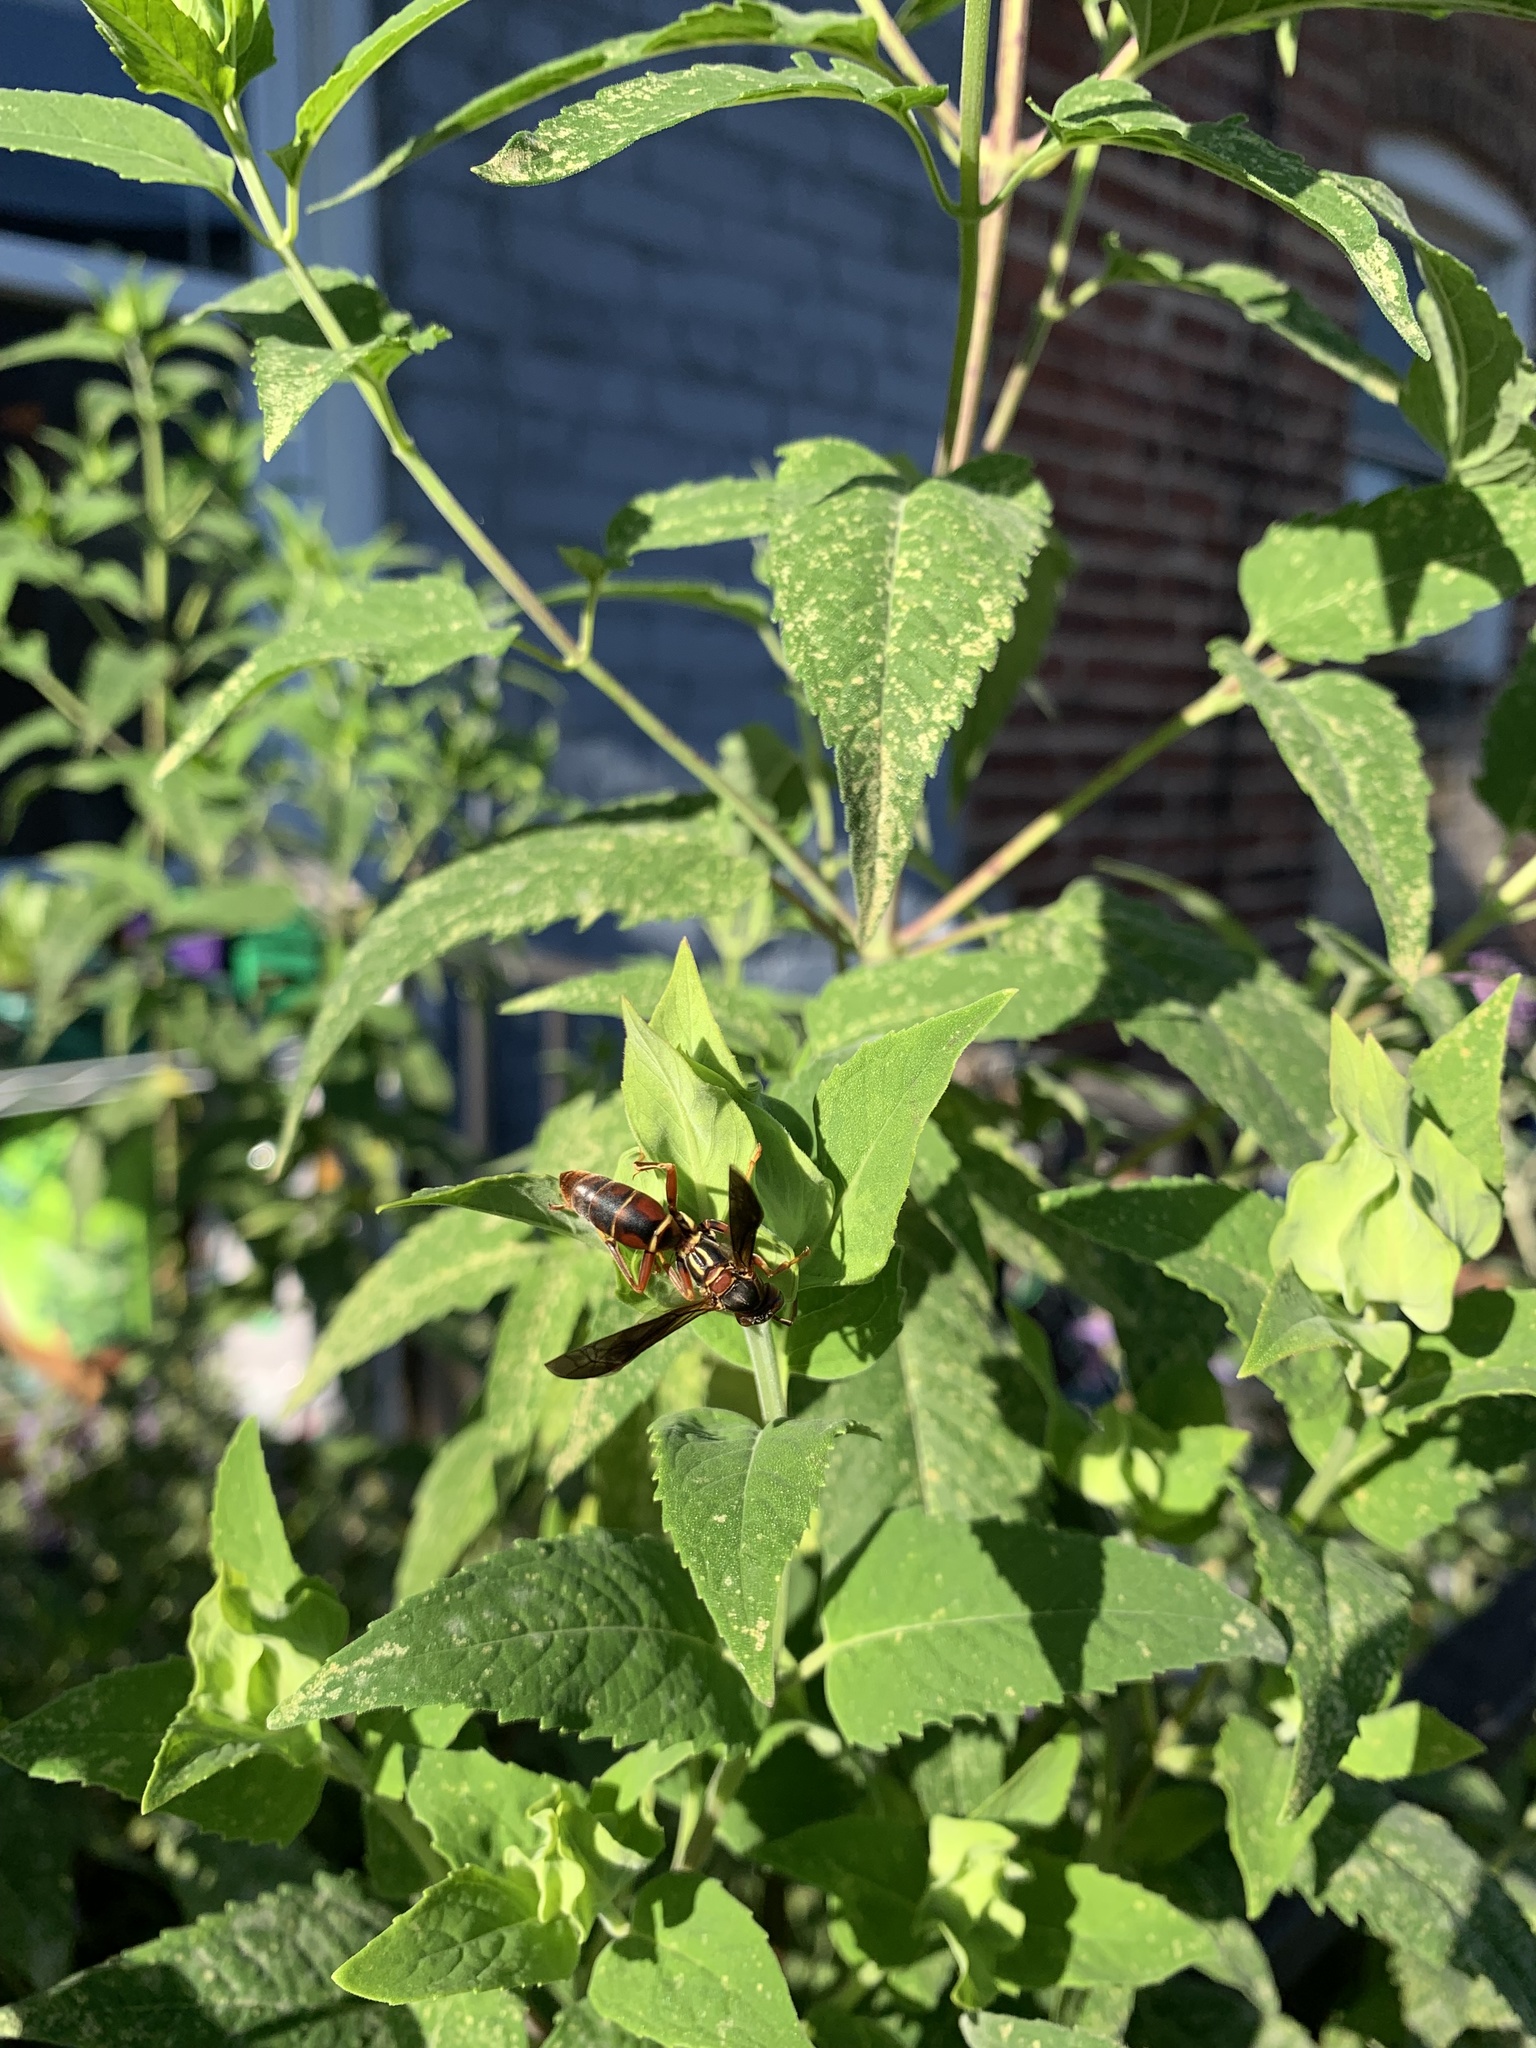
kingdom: Animalia
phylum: Arthropoda
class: Insecta
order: Hymenoptera
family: Eumenidae
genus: Polistes
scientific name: Polistes fuscatus
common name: Dark paper wasp
